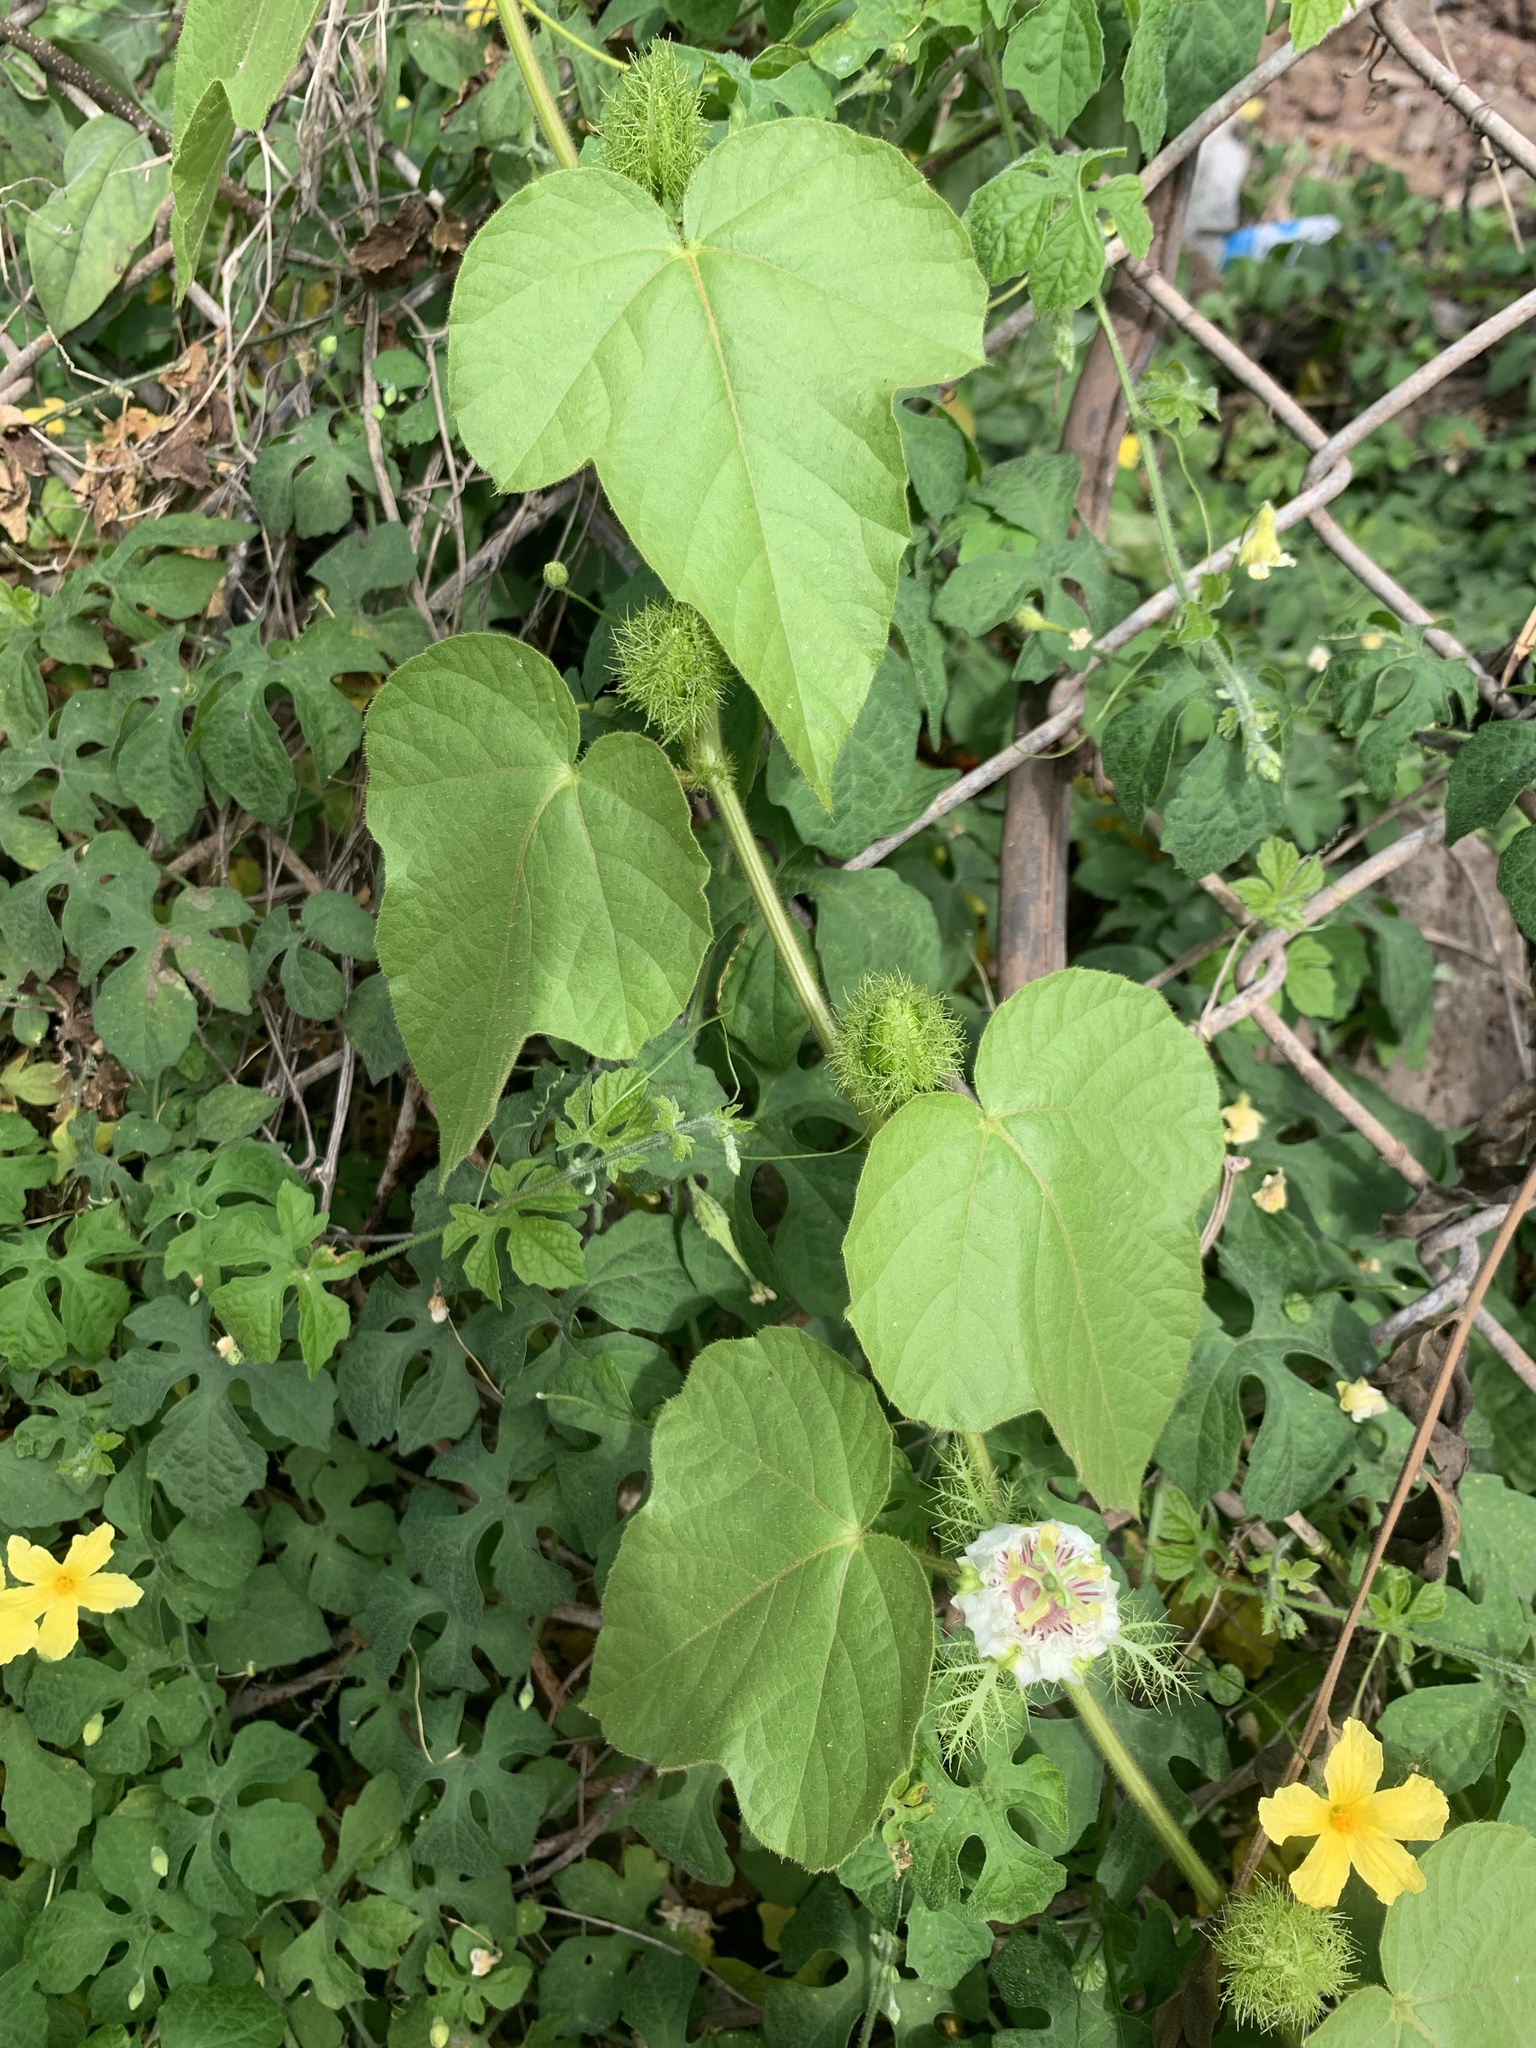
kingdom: Plantae
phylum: Tracheophyta
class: Magnoliopsida
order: Malpighiales
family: Passifloraceae
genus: Passiflora
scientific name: Passiflora vesicaria
